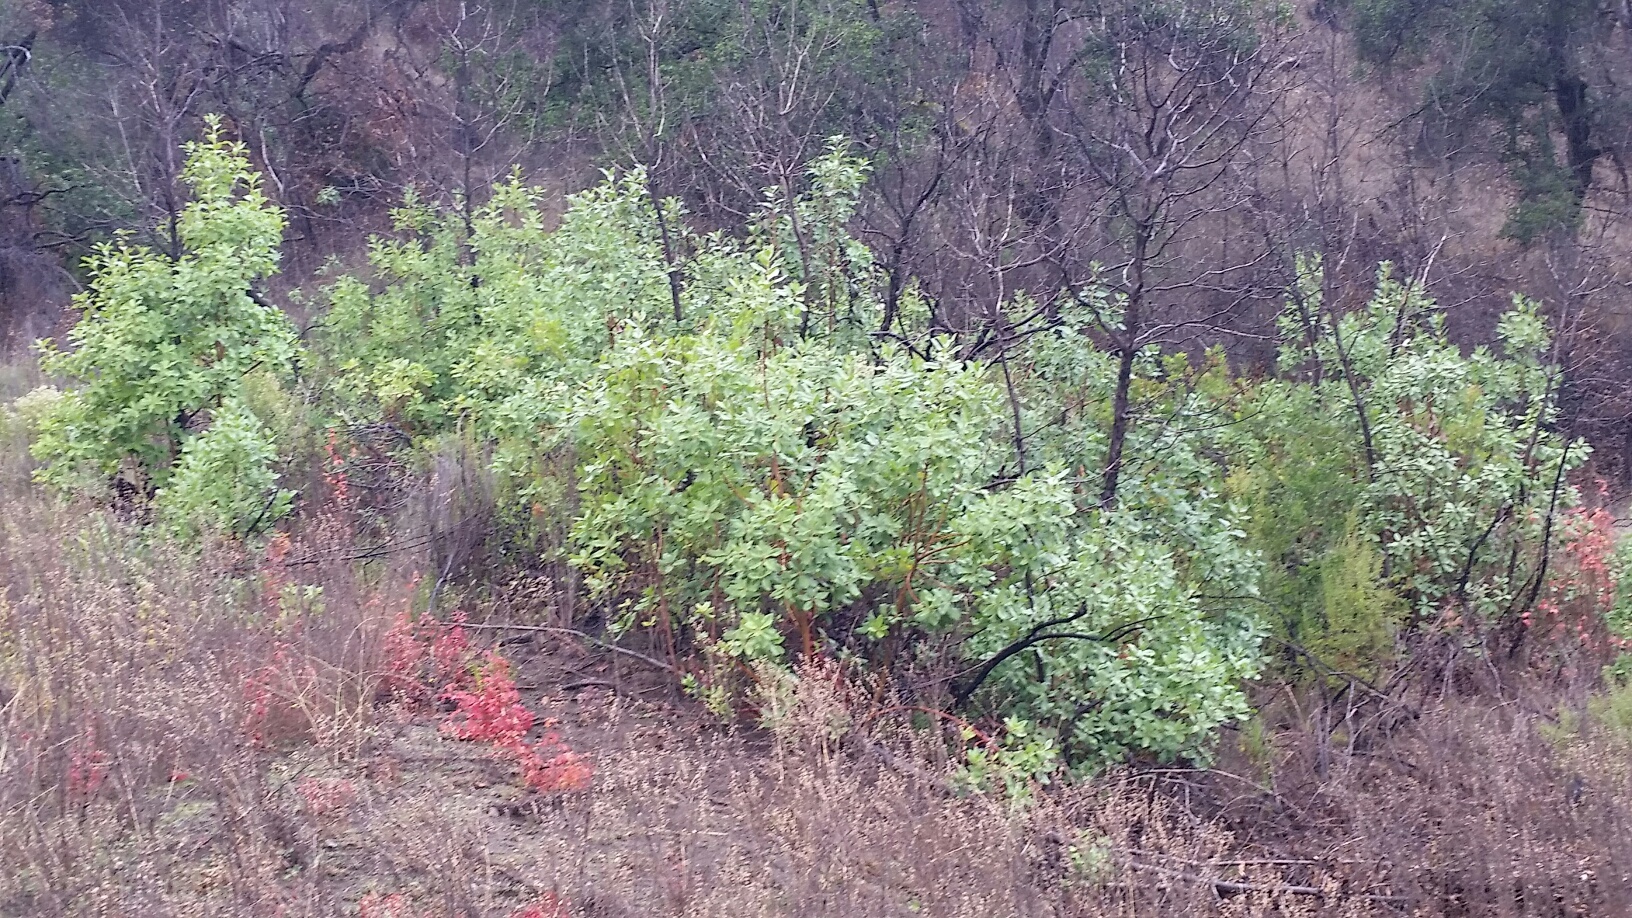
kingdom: Plantae
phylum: Tracheophyta
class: Magnoliopsida
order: Ericales
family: Ericaceae
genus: Arbutus
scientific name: Arbutus menziesii
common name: Pacific madrone
